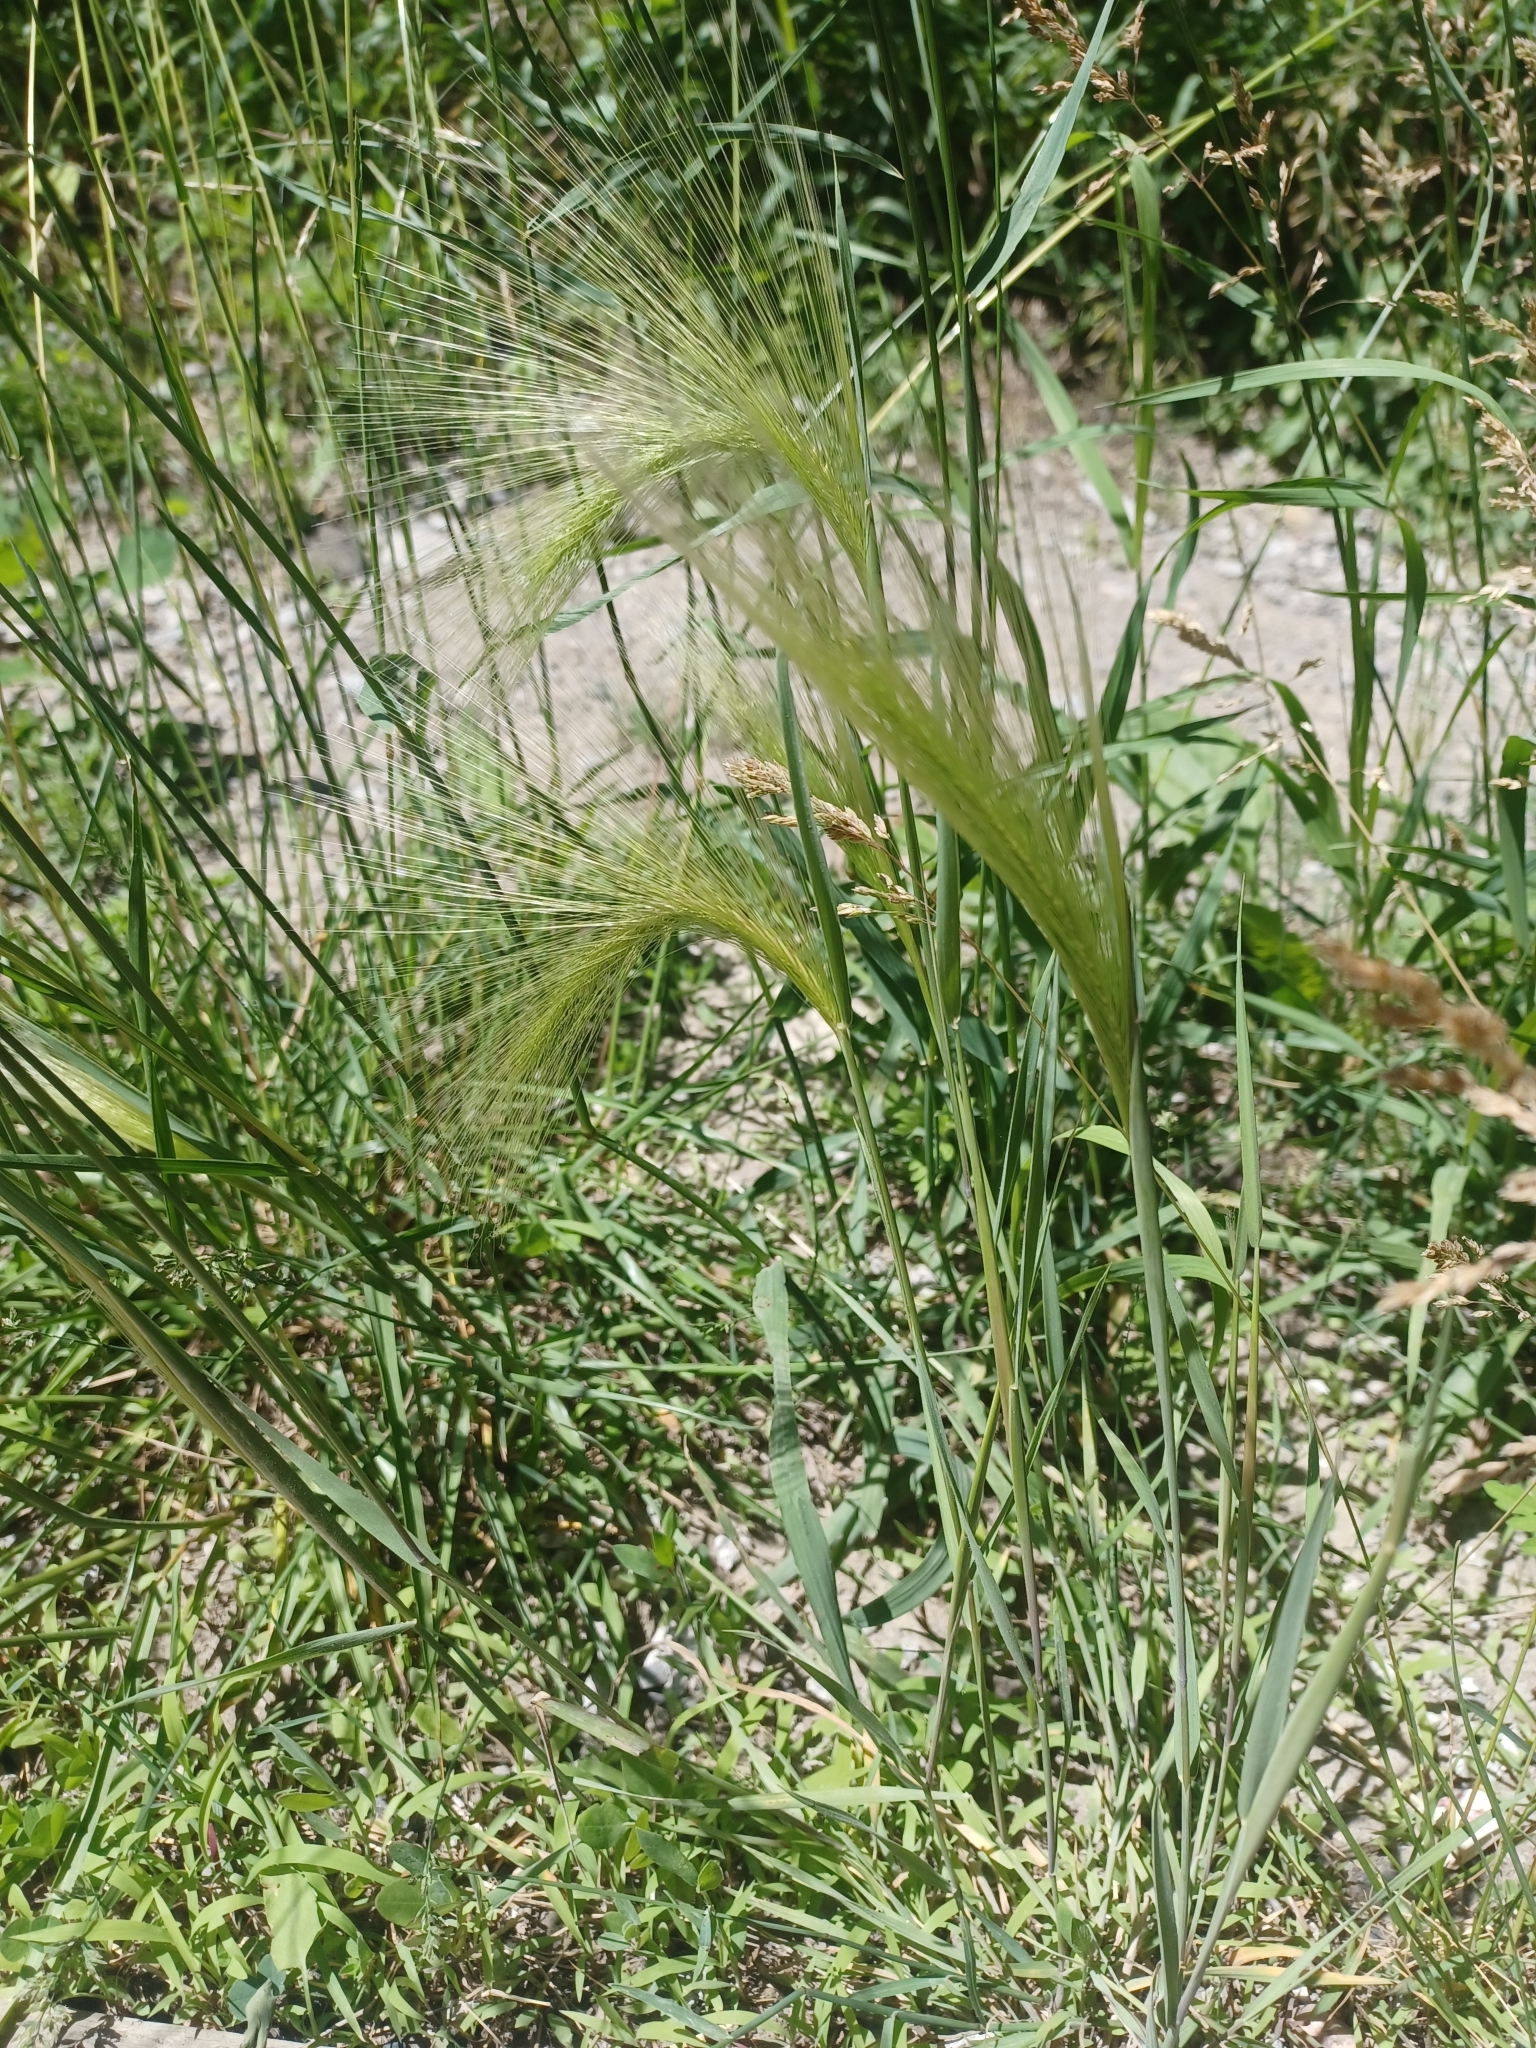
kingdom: Plantae
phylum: Tracheophyta
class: Liliopsida
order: Poales
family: Poaceae
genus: Hordeum
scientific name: Hordeum jubatum
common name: Foxtail barley
